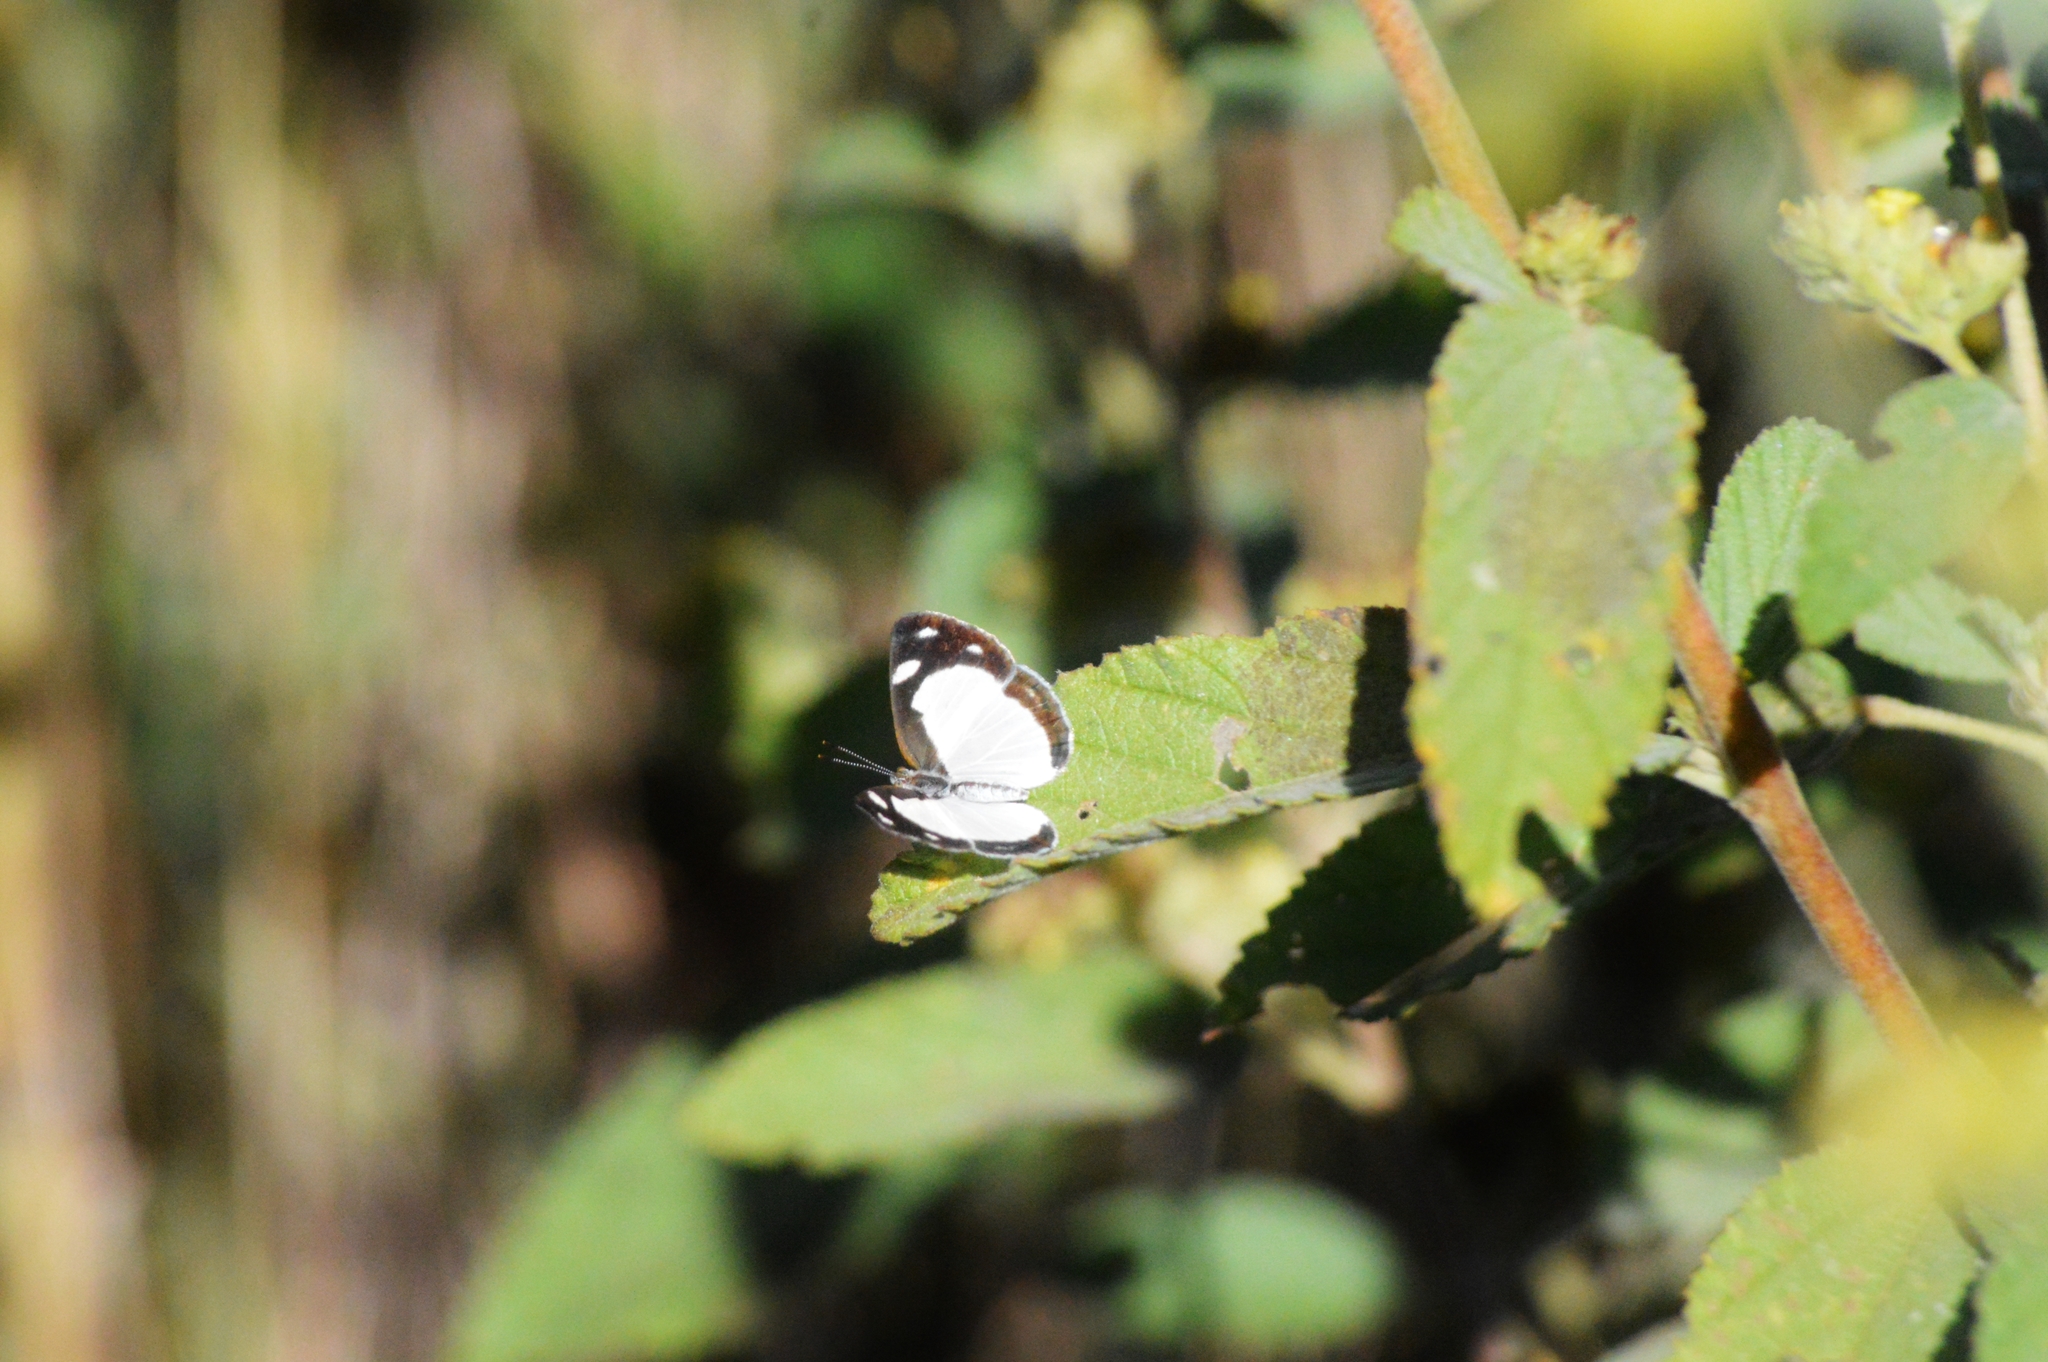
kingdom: Animalia
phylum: Arthropoda
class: Insecta
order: Lepidoptera
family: Nymphalidae
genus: Dynamine
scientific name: Dynamine agacles
